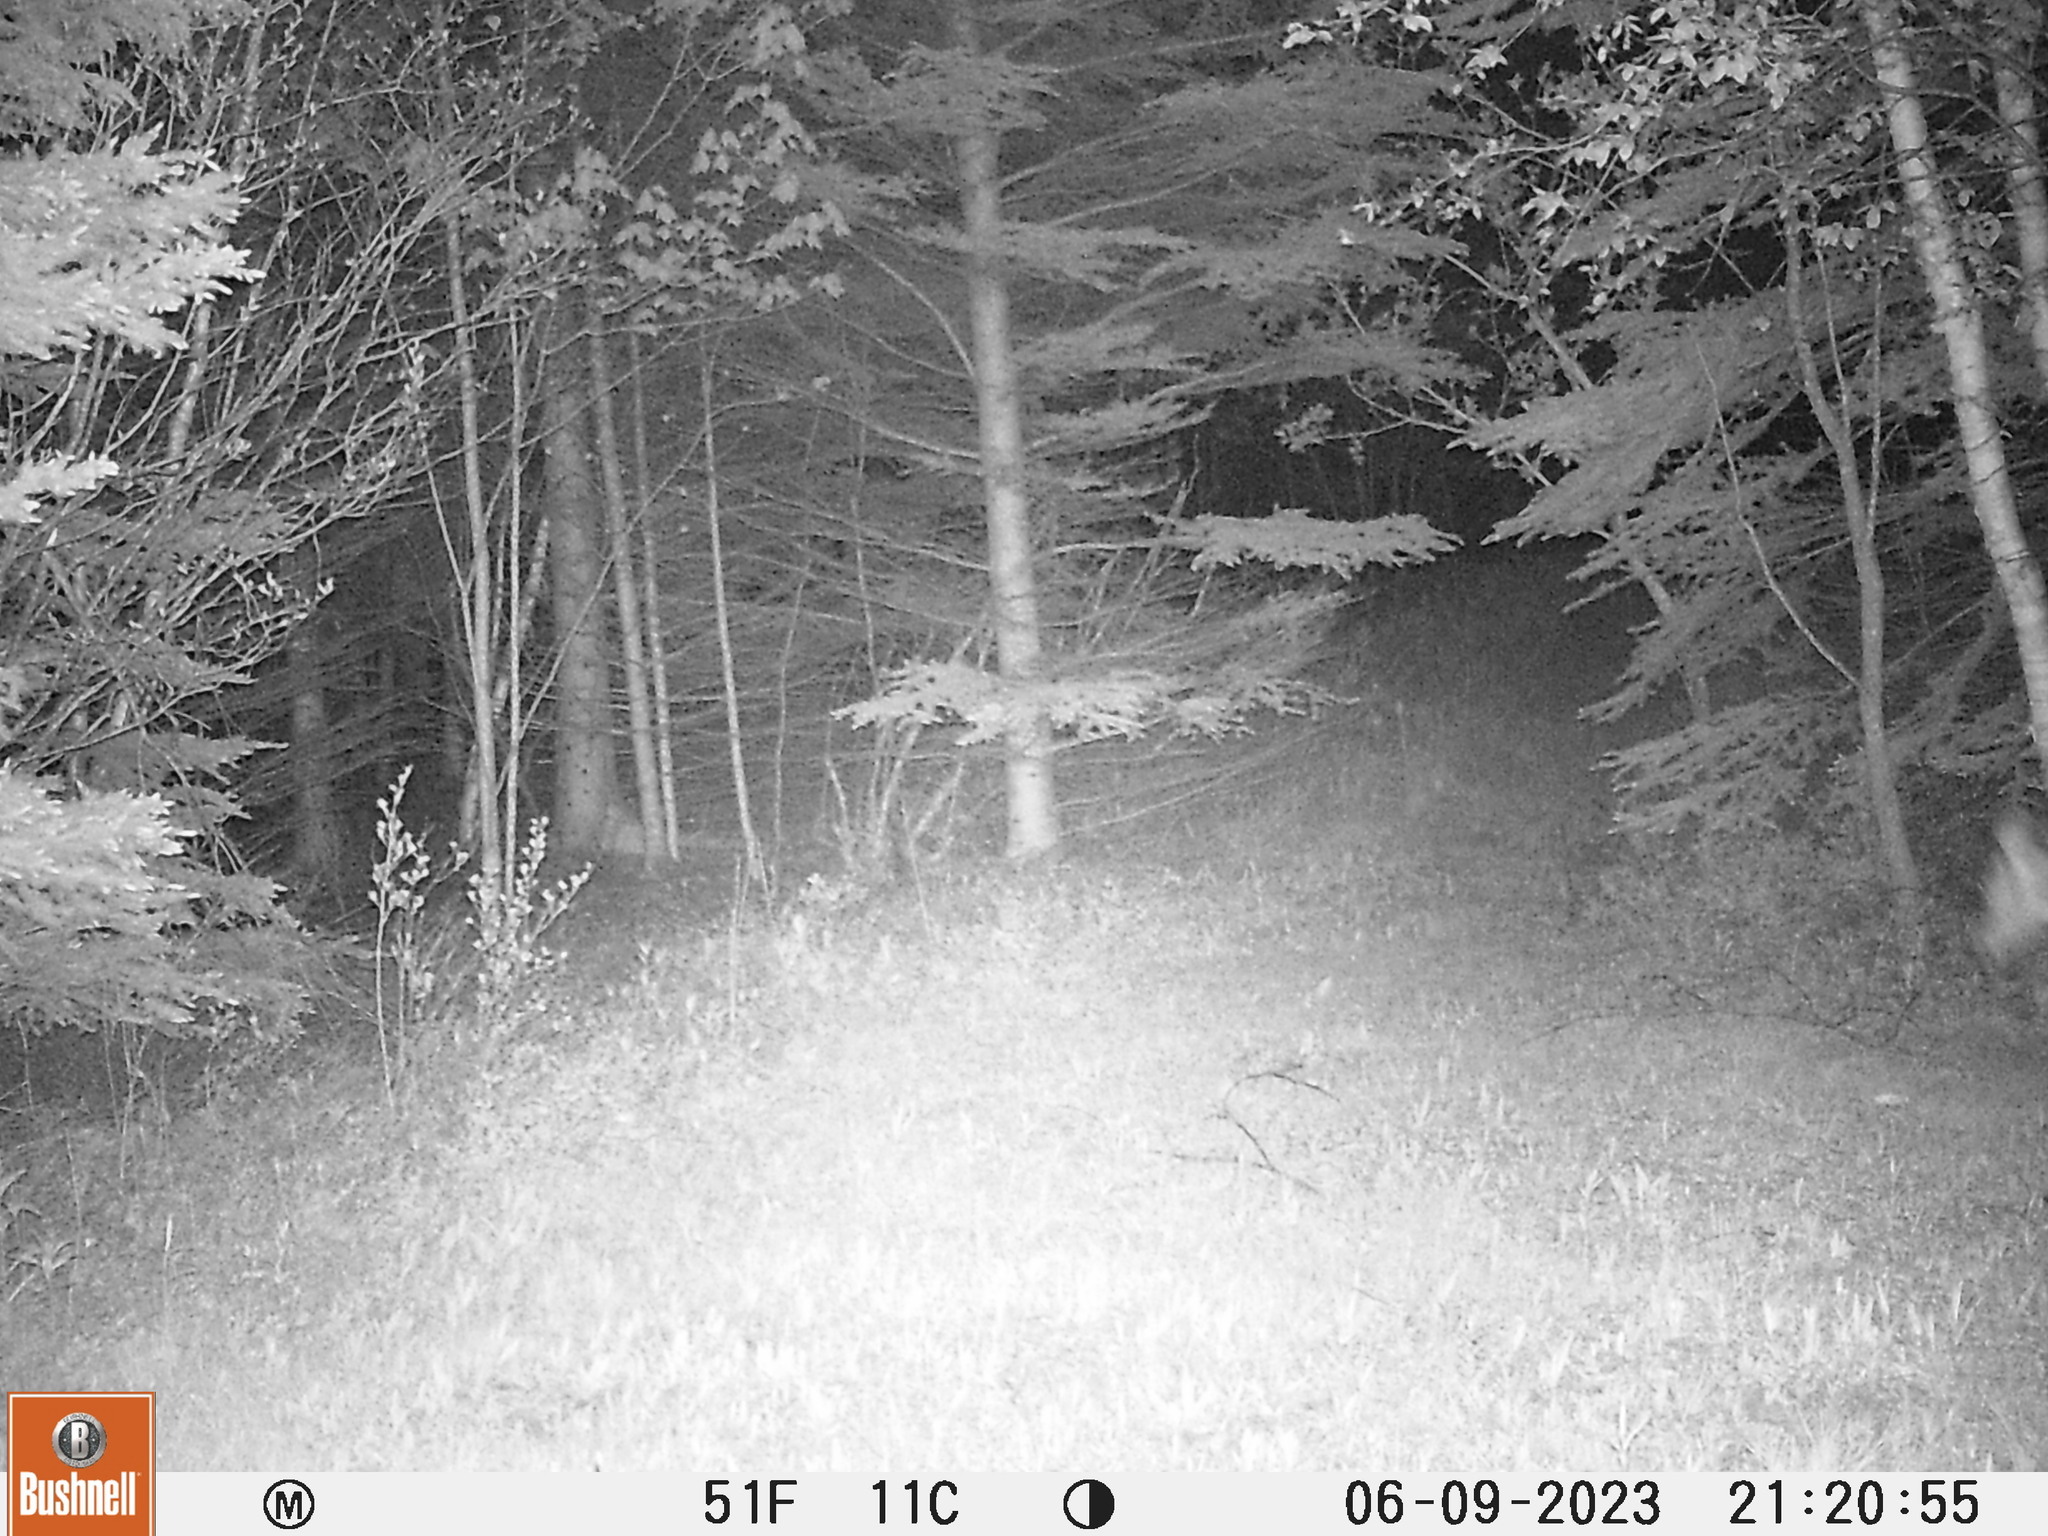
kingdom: Animalia
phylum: Chordata
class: Mammalia
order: Artiodactyla
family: Cervidae
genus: Odocoileus
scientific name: Odocoileus virginianus
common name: White-tailed deer
